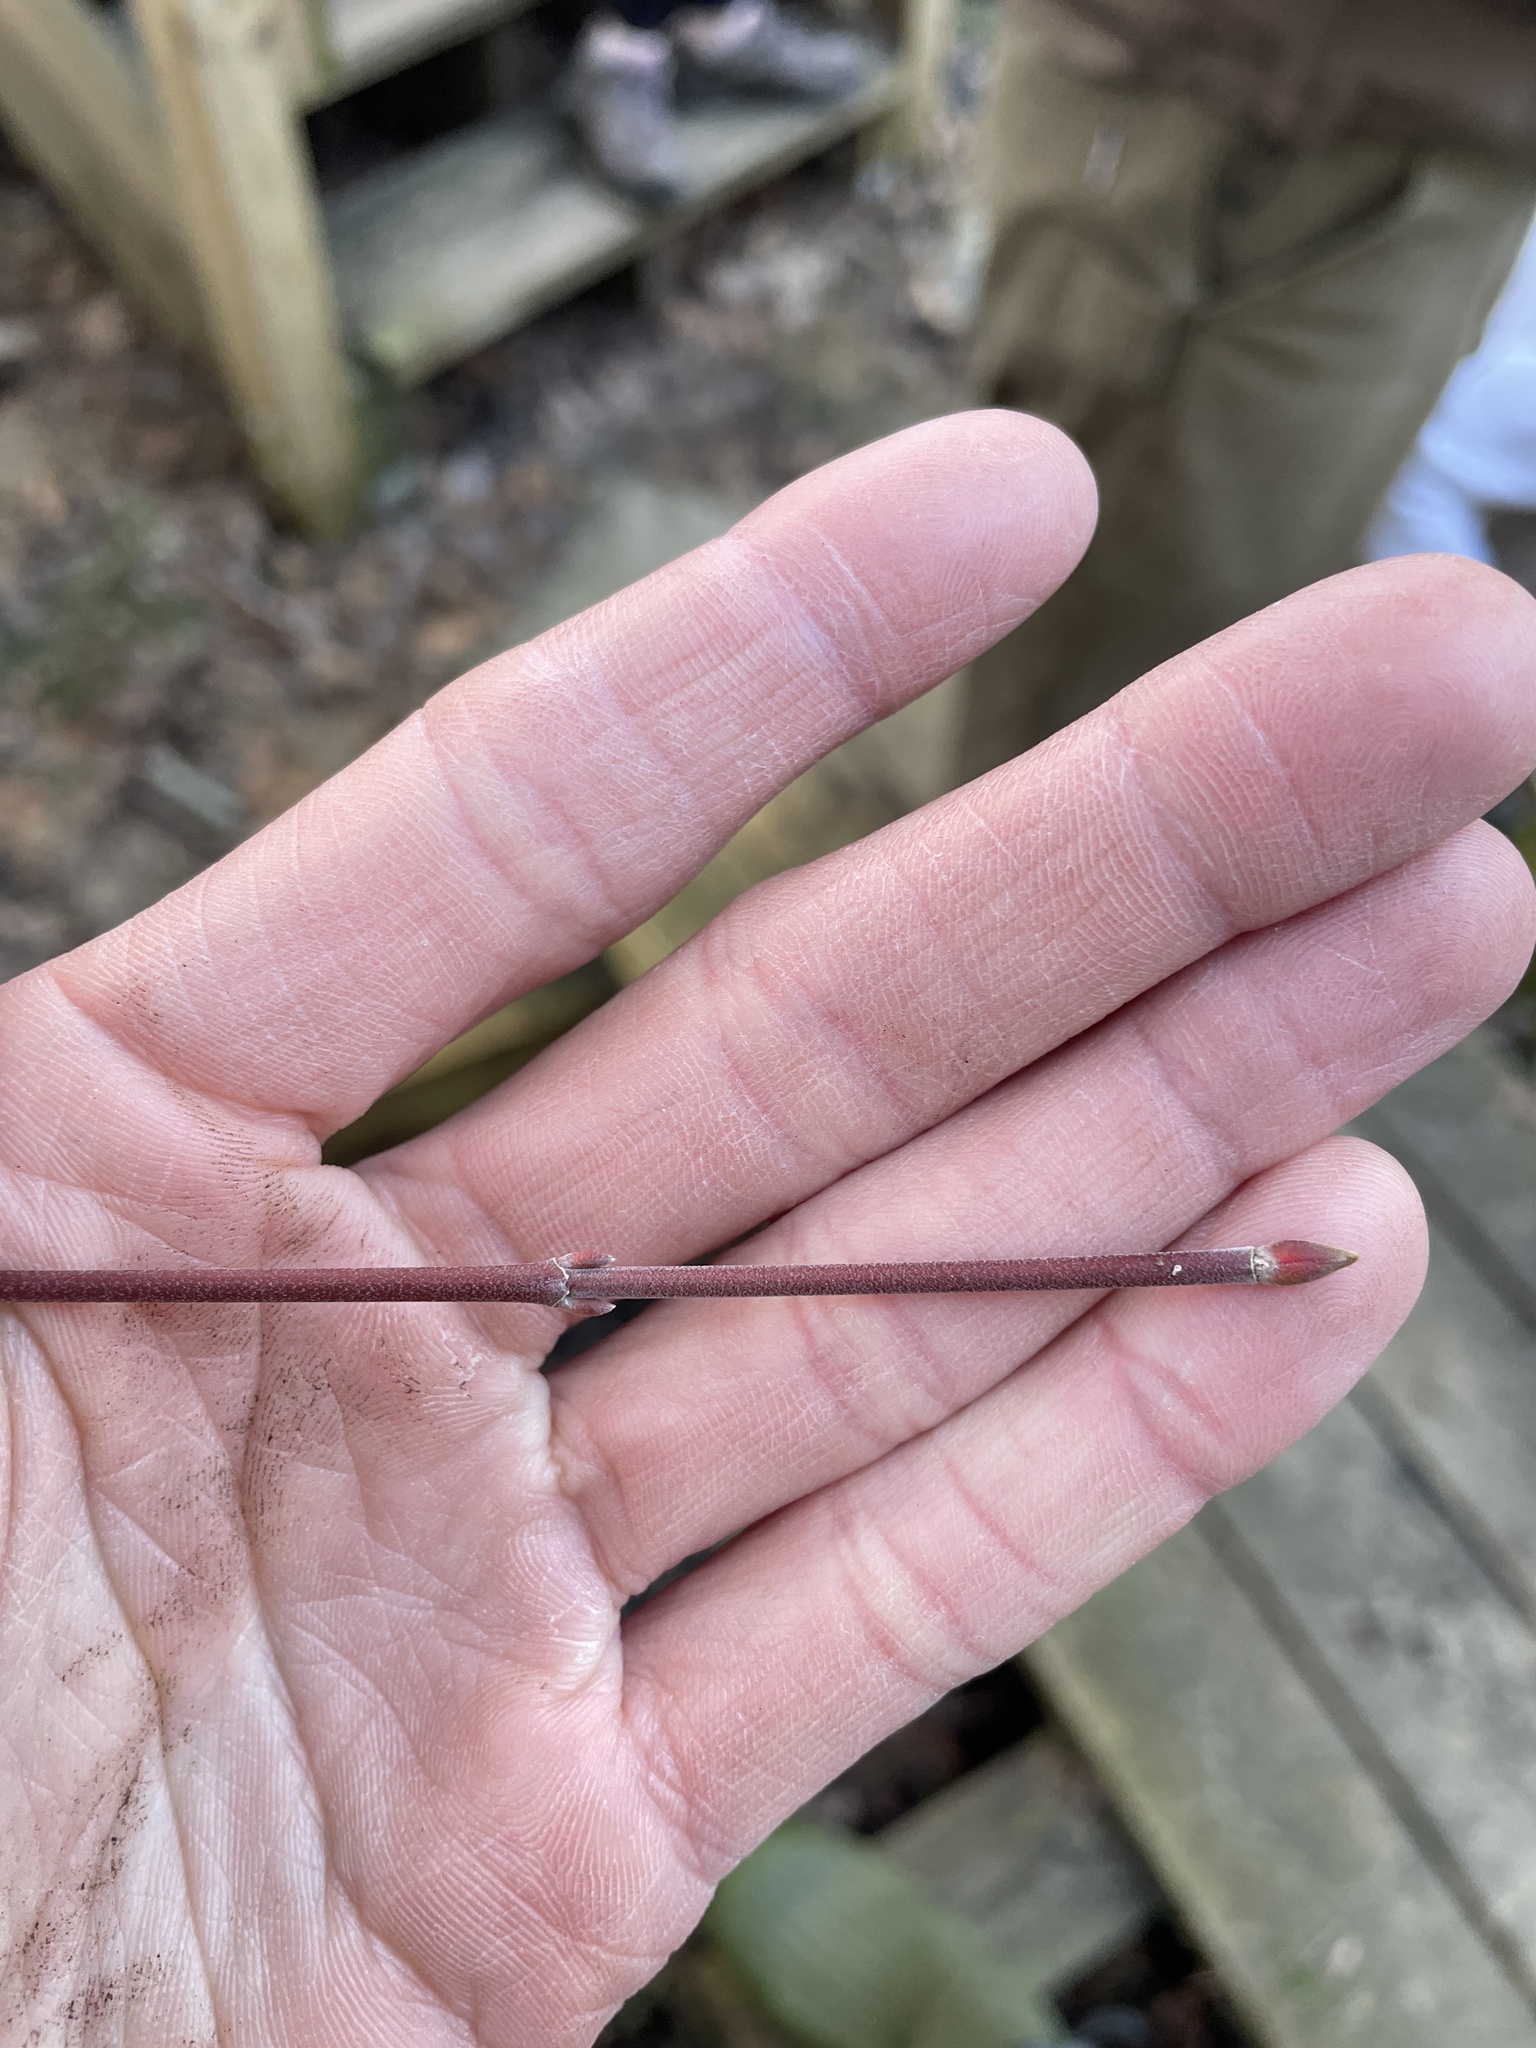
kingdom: Plantae
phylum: Tracheophyta
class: Magnoliopsida
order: Sapindales
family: Sapindaceae
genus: Acer
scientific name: Acer spicatum
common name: Mountain maple
